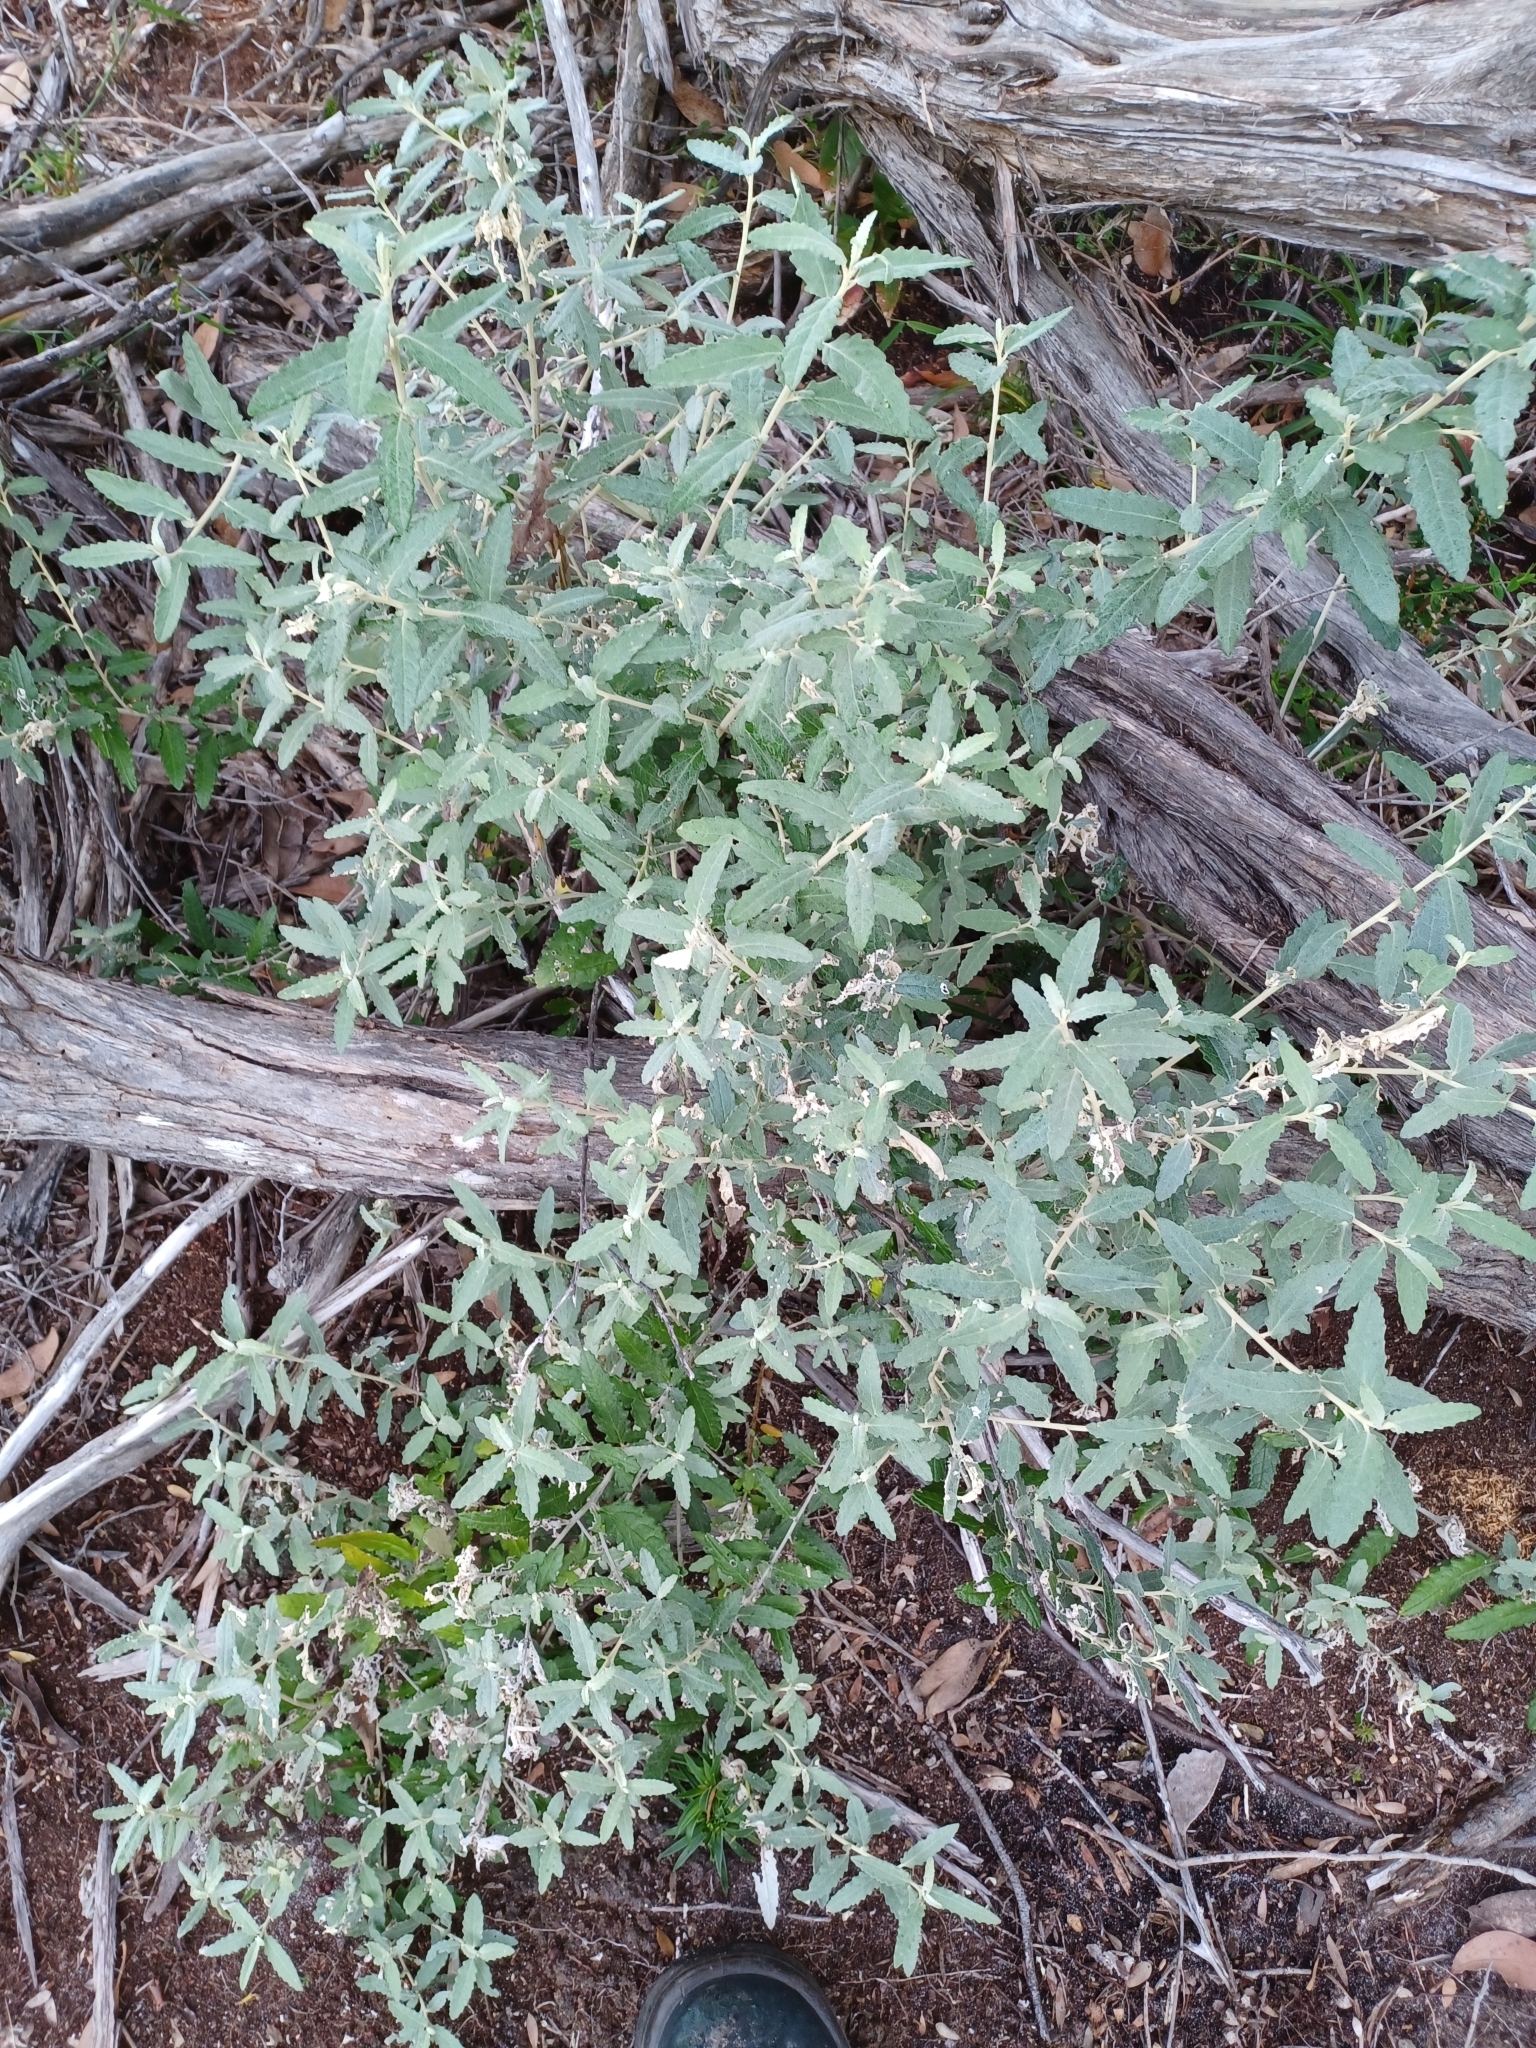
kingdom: Plantae
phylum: Tracheophyta
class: Magnoliopsida
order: Asterales
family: Asteraceae
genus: Olearia
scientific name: Olearia phlogopappa
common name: Alpine daisybush
